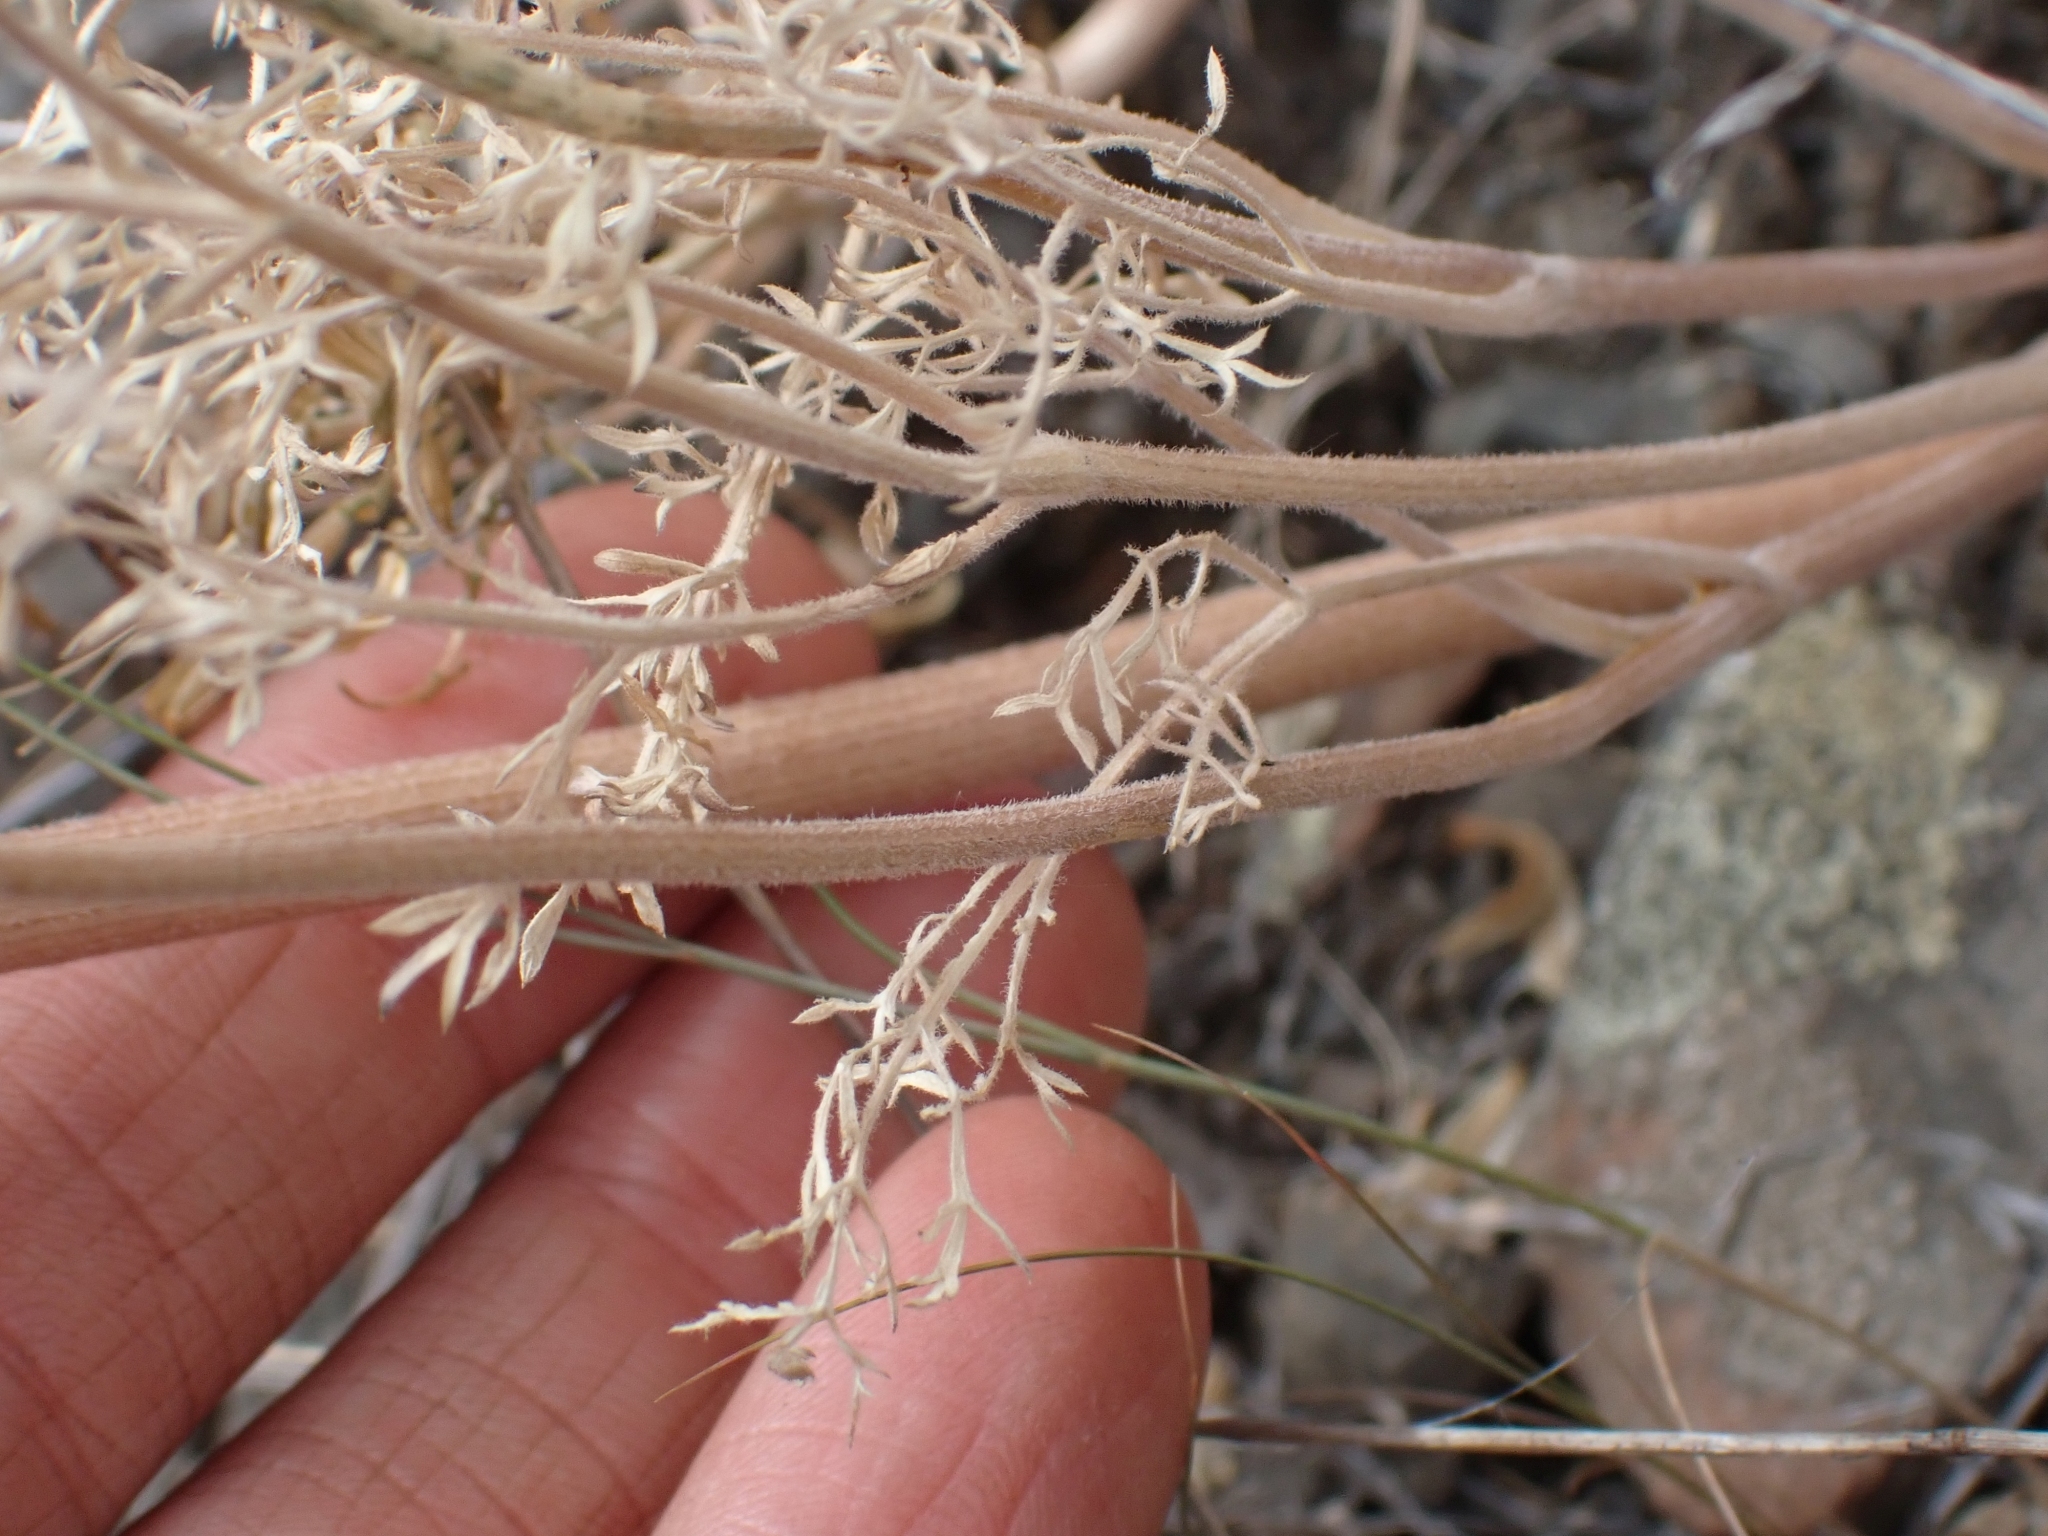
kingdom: Plantae
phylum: Tracheophyta
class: Magnoliopsida
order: Apiales
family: Apiaceae
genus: Lomatium
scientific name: Lomatium multifidum
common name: Carrot-leaved biscuitroot
